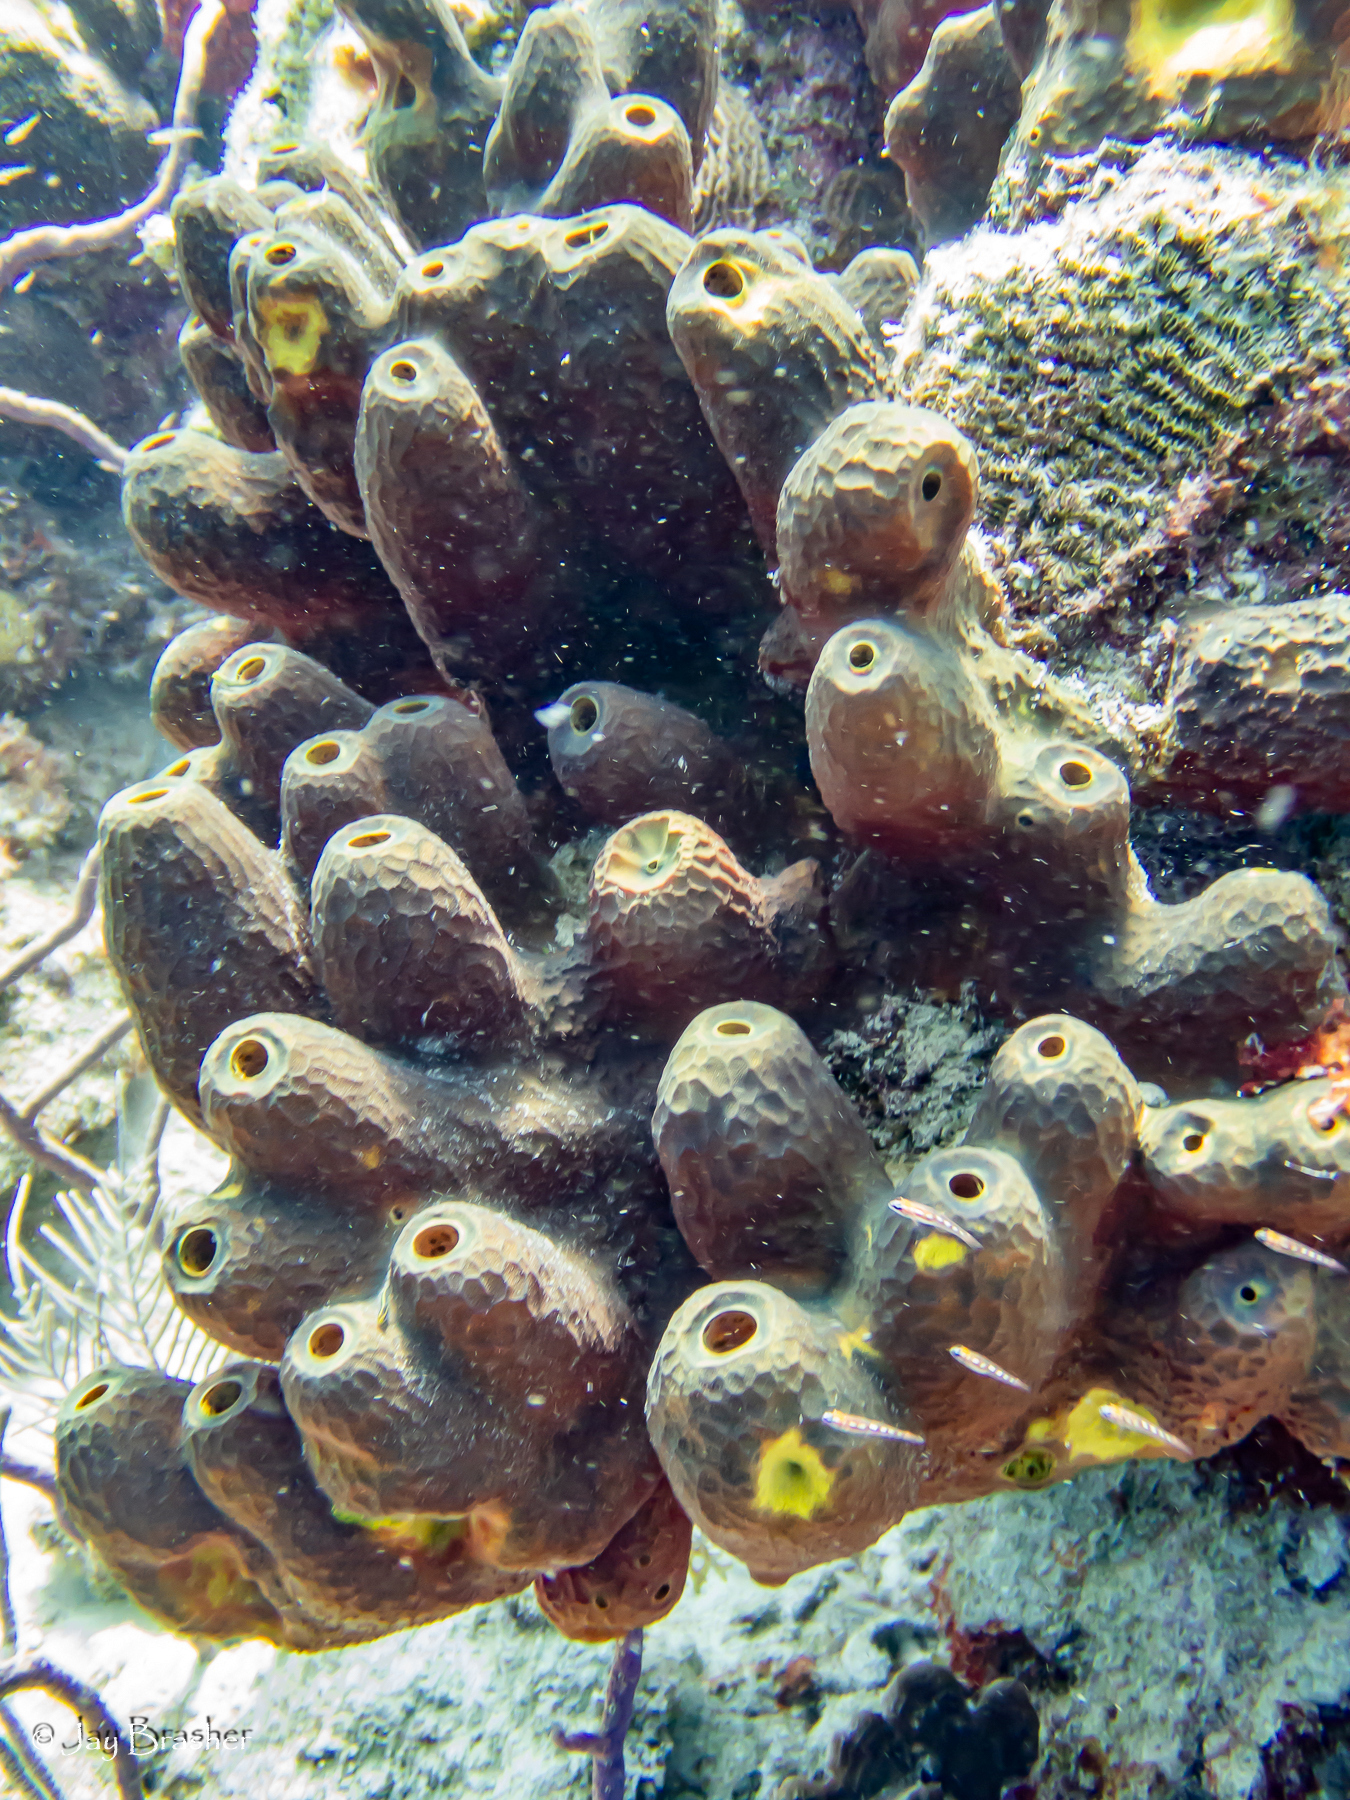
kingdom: Animalia
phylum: Porifera
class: Demospongiae
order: Verongiida
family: Aplysinidae
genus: Verongula
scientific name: Verongula reiswigi
